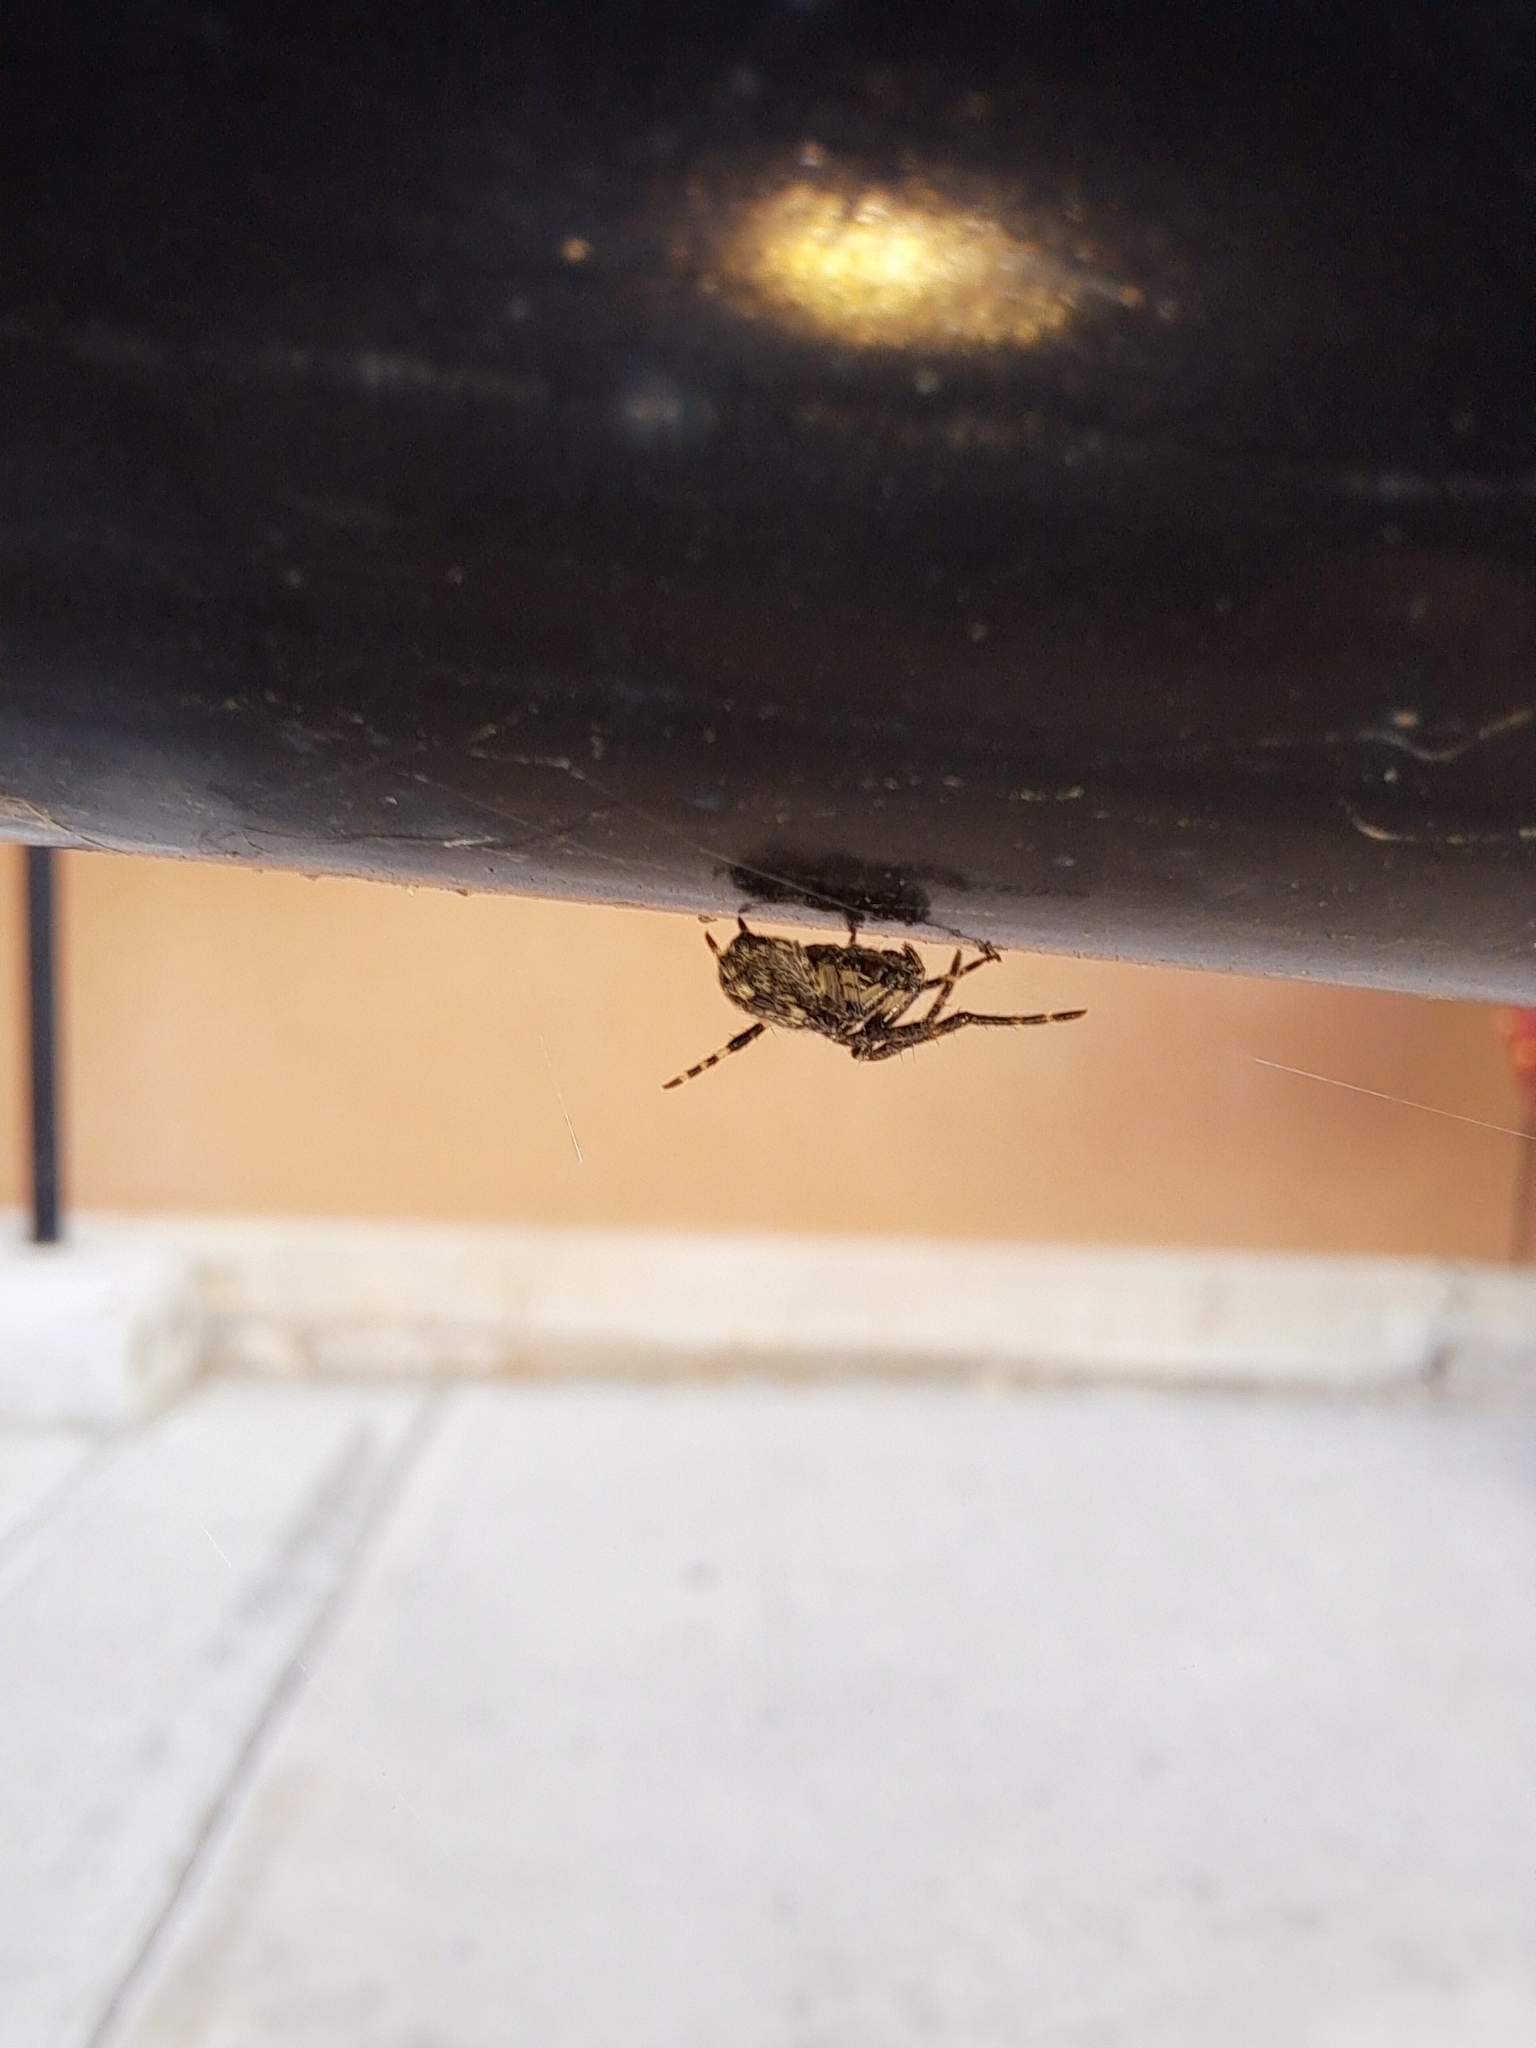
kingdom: Animalia
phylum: Arthropoda
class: Arachnida
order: Araneae
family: Araneidae
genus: Larinioides
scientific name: Larinioides sclopetarius
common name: Bridge orbweaver
